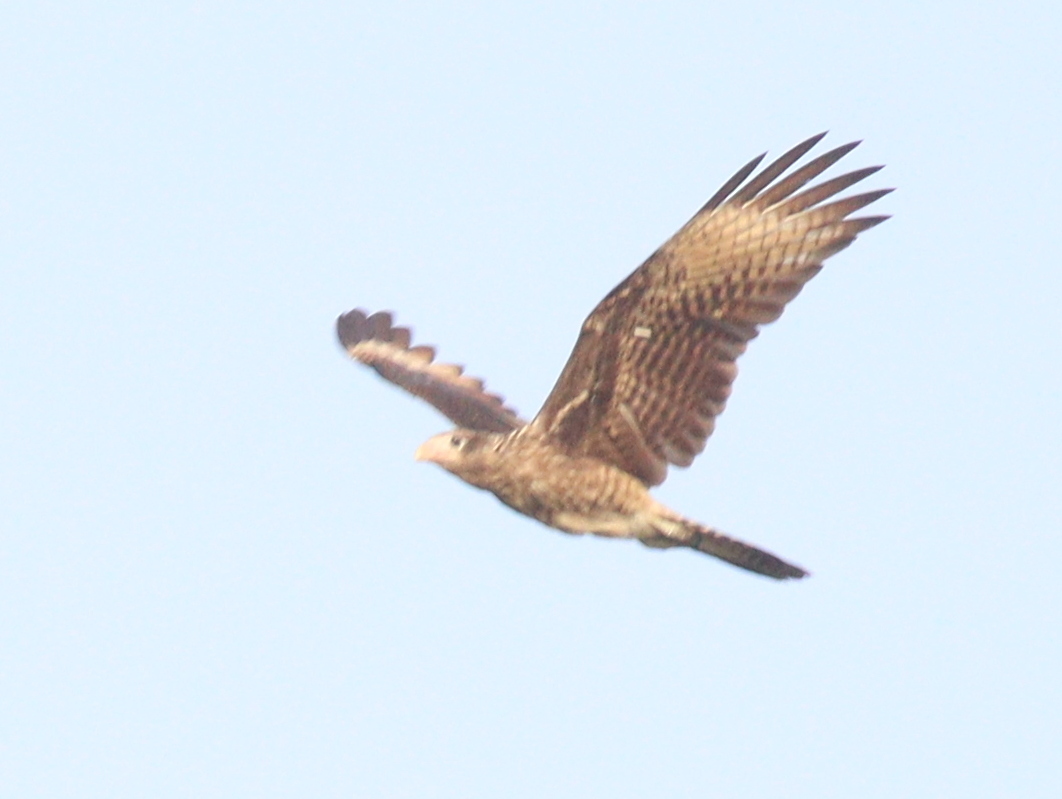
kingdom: Animalia
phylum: Chordata
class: Aves
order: Falconiformes
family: Falconidae
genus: Daptrius
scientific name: Daptrius
